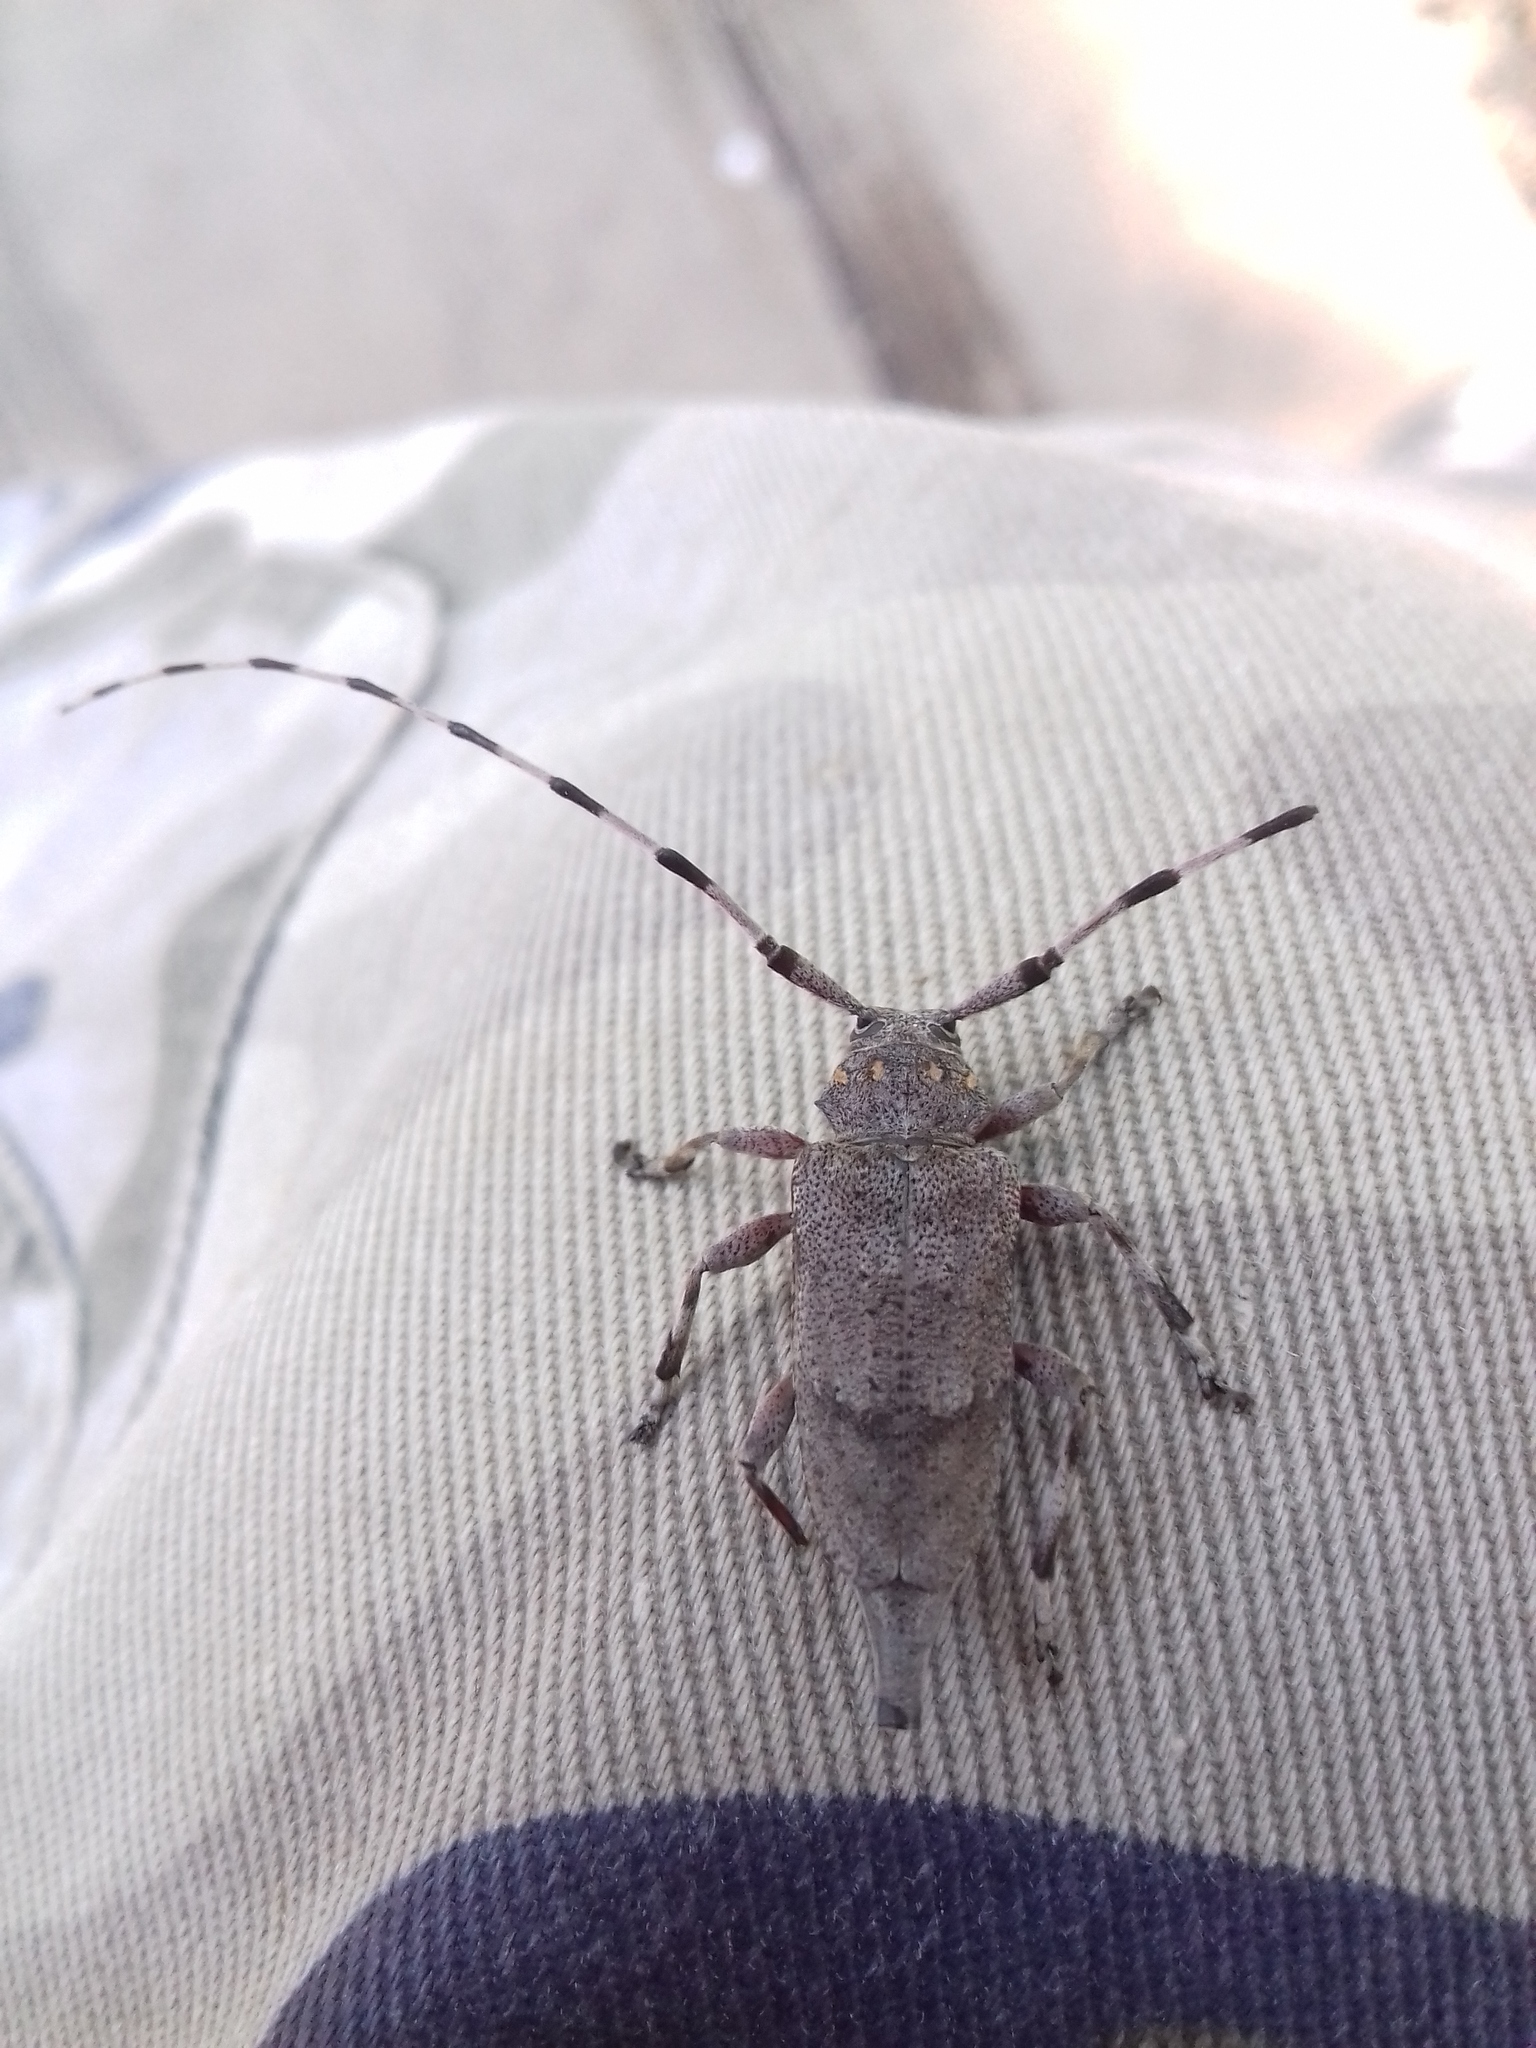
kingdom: Animalia
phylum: Arthropoda
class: Insecta
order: Coleoptera
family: Cerambycidae
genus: Acanthocinus
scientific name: Acanthocinus aedilis
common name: Timberman beetle
